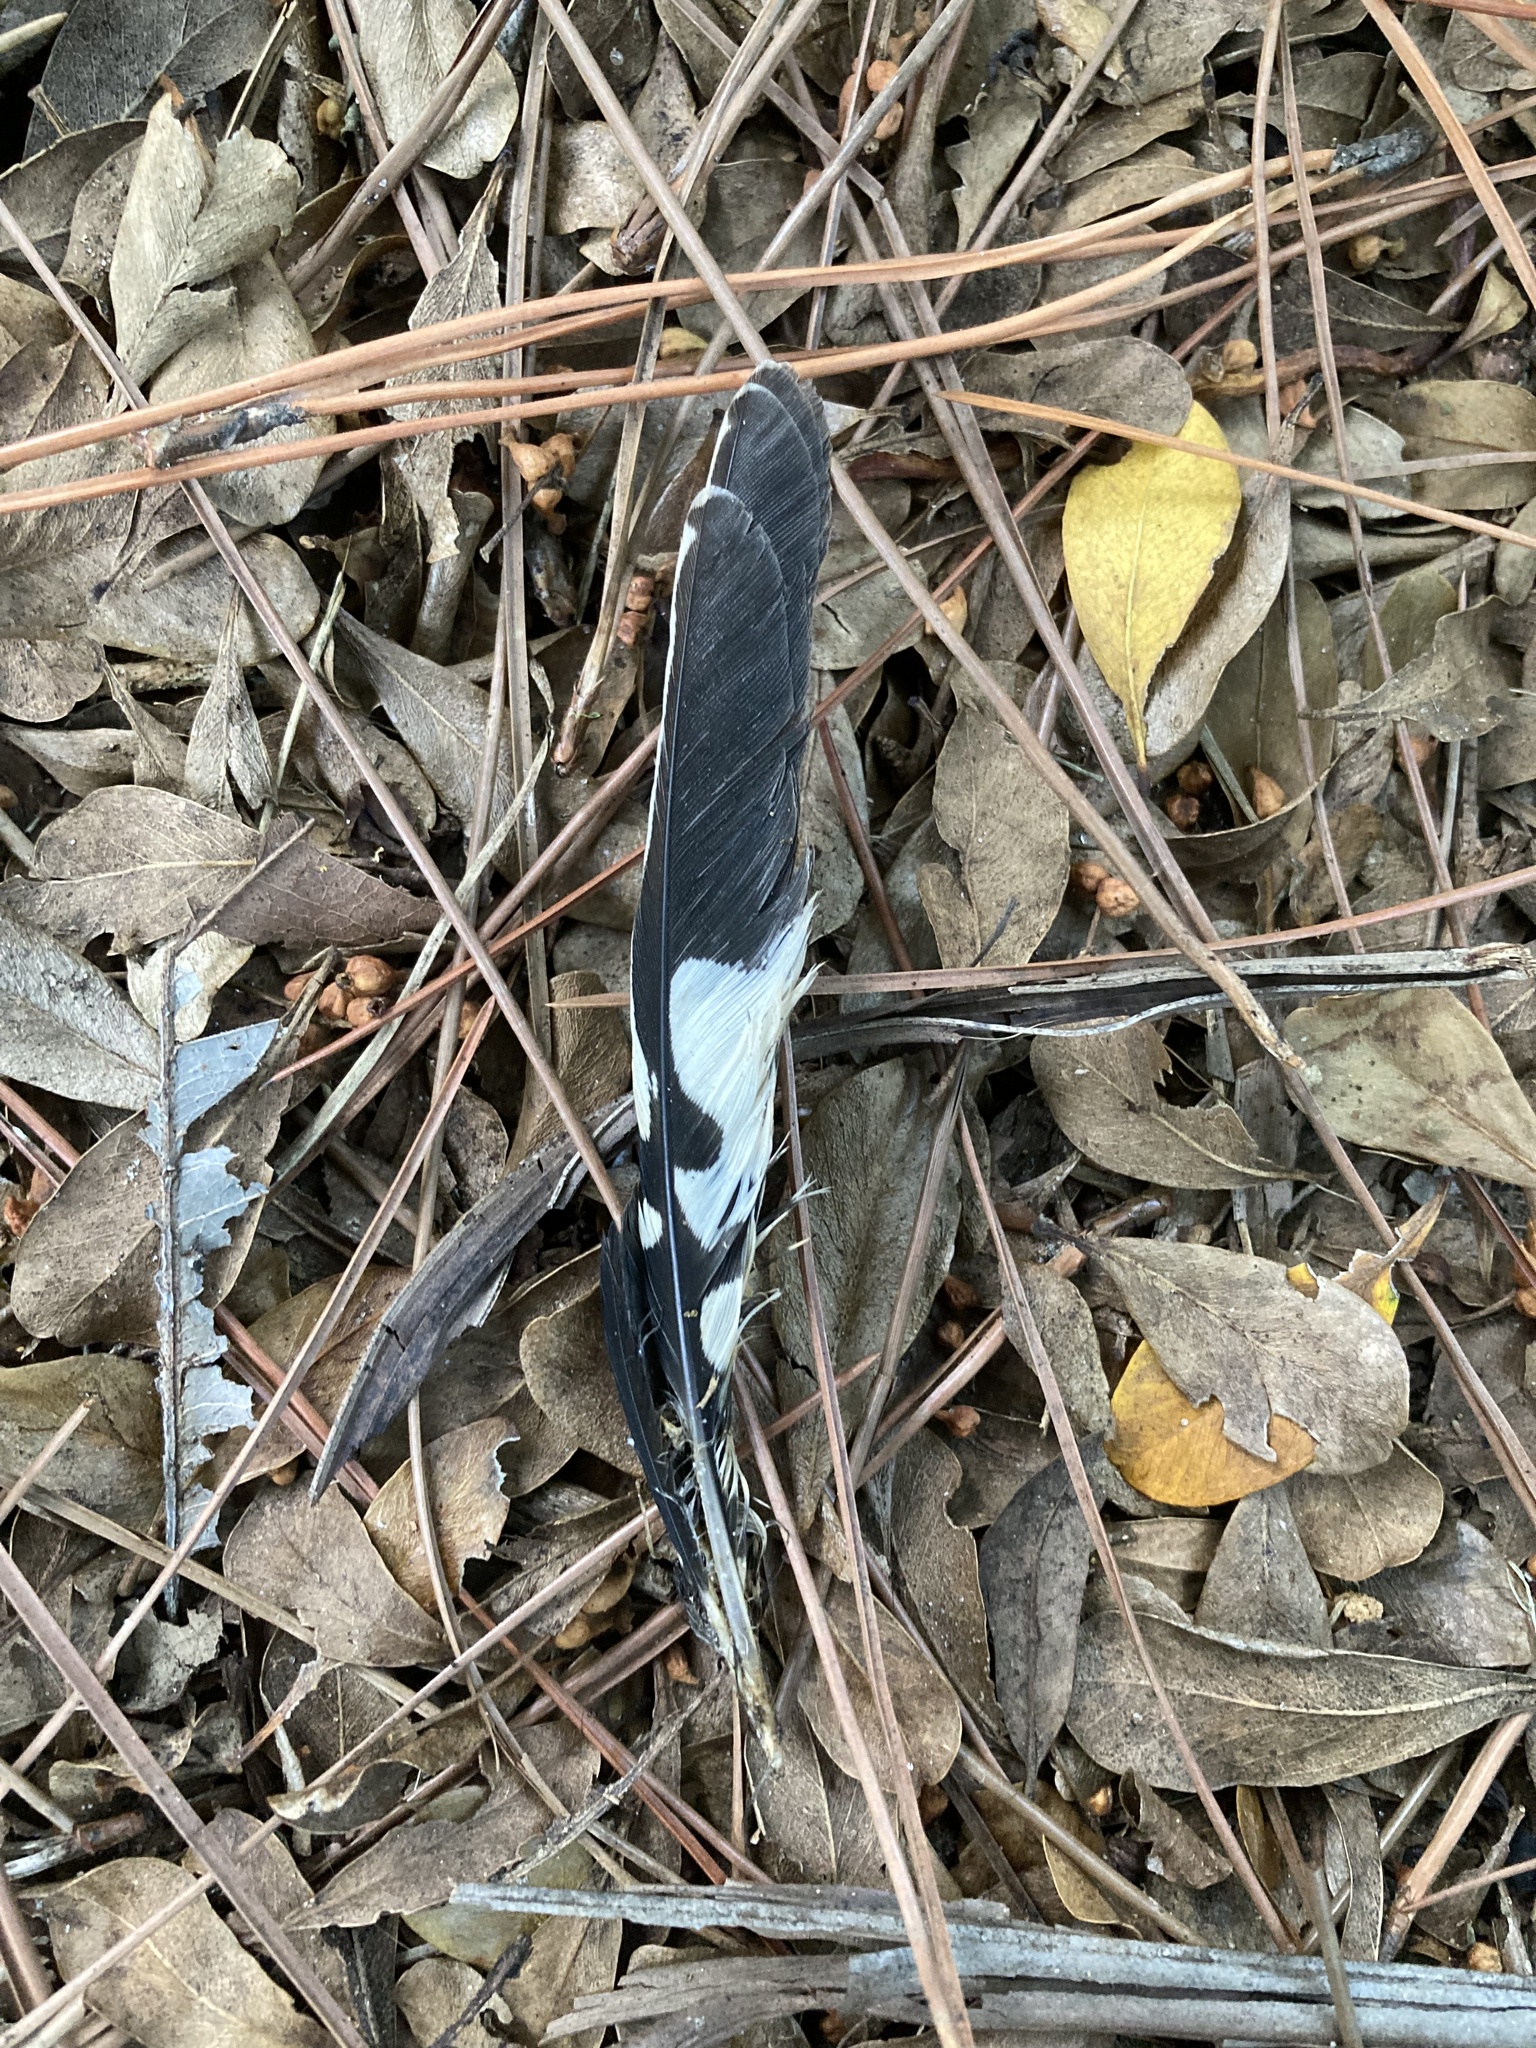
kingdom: Animalia
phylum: Chordata
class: Aves
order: Piciformes
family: Picidae
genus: Melanerpes
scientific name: Melanerpes carolinus
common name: Red-bellied woodpecker
